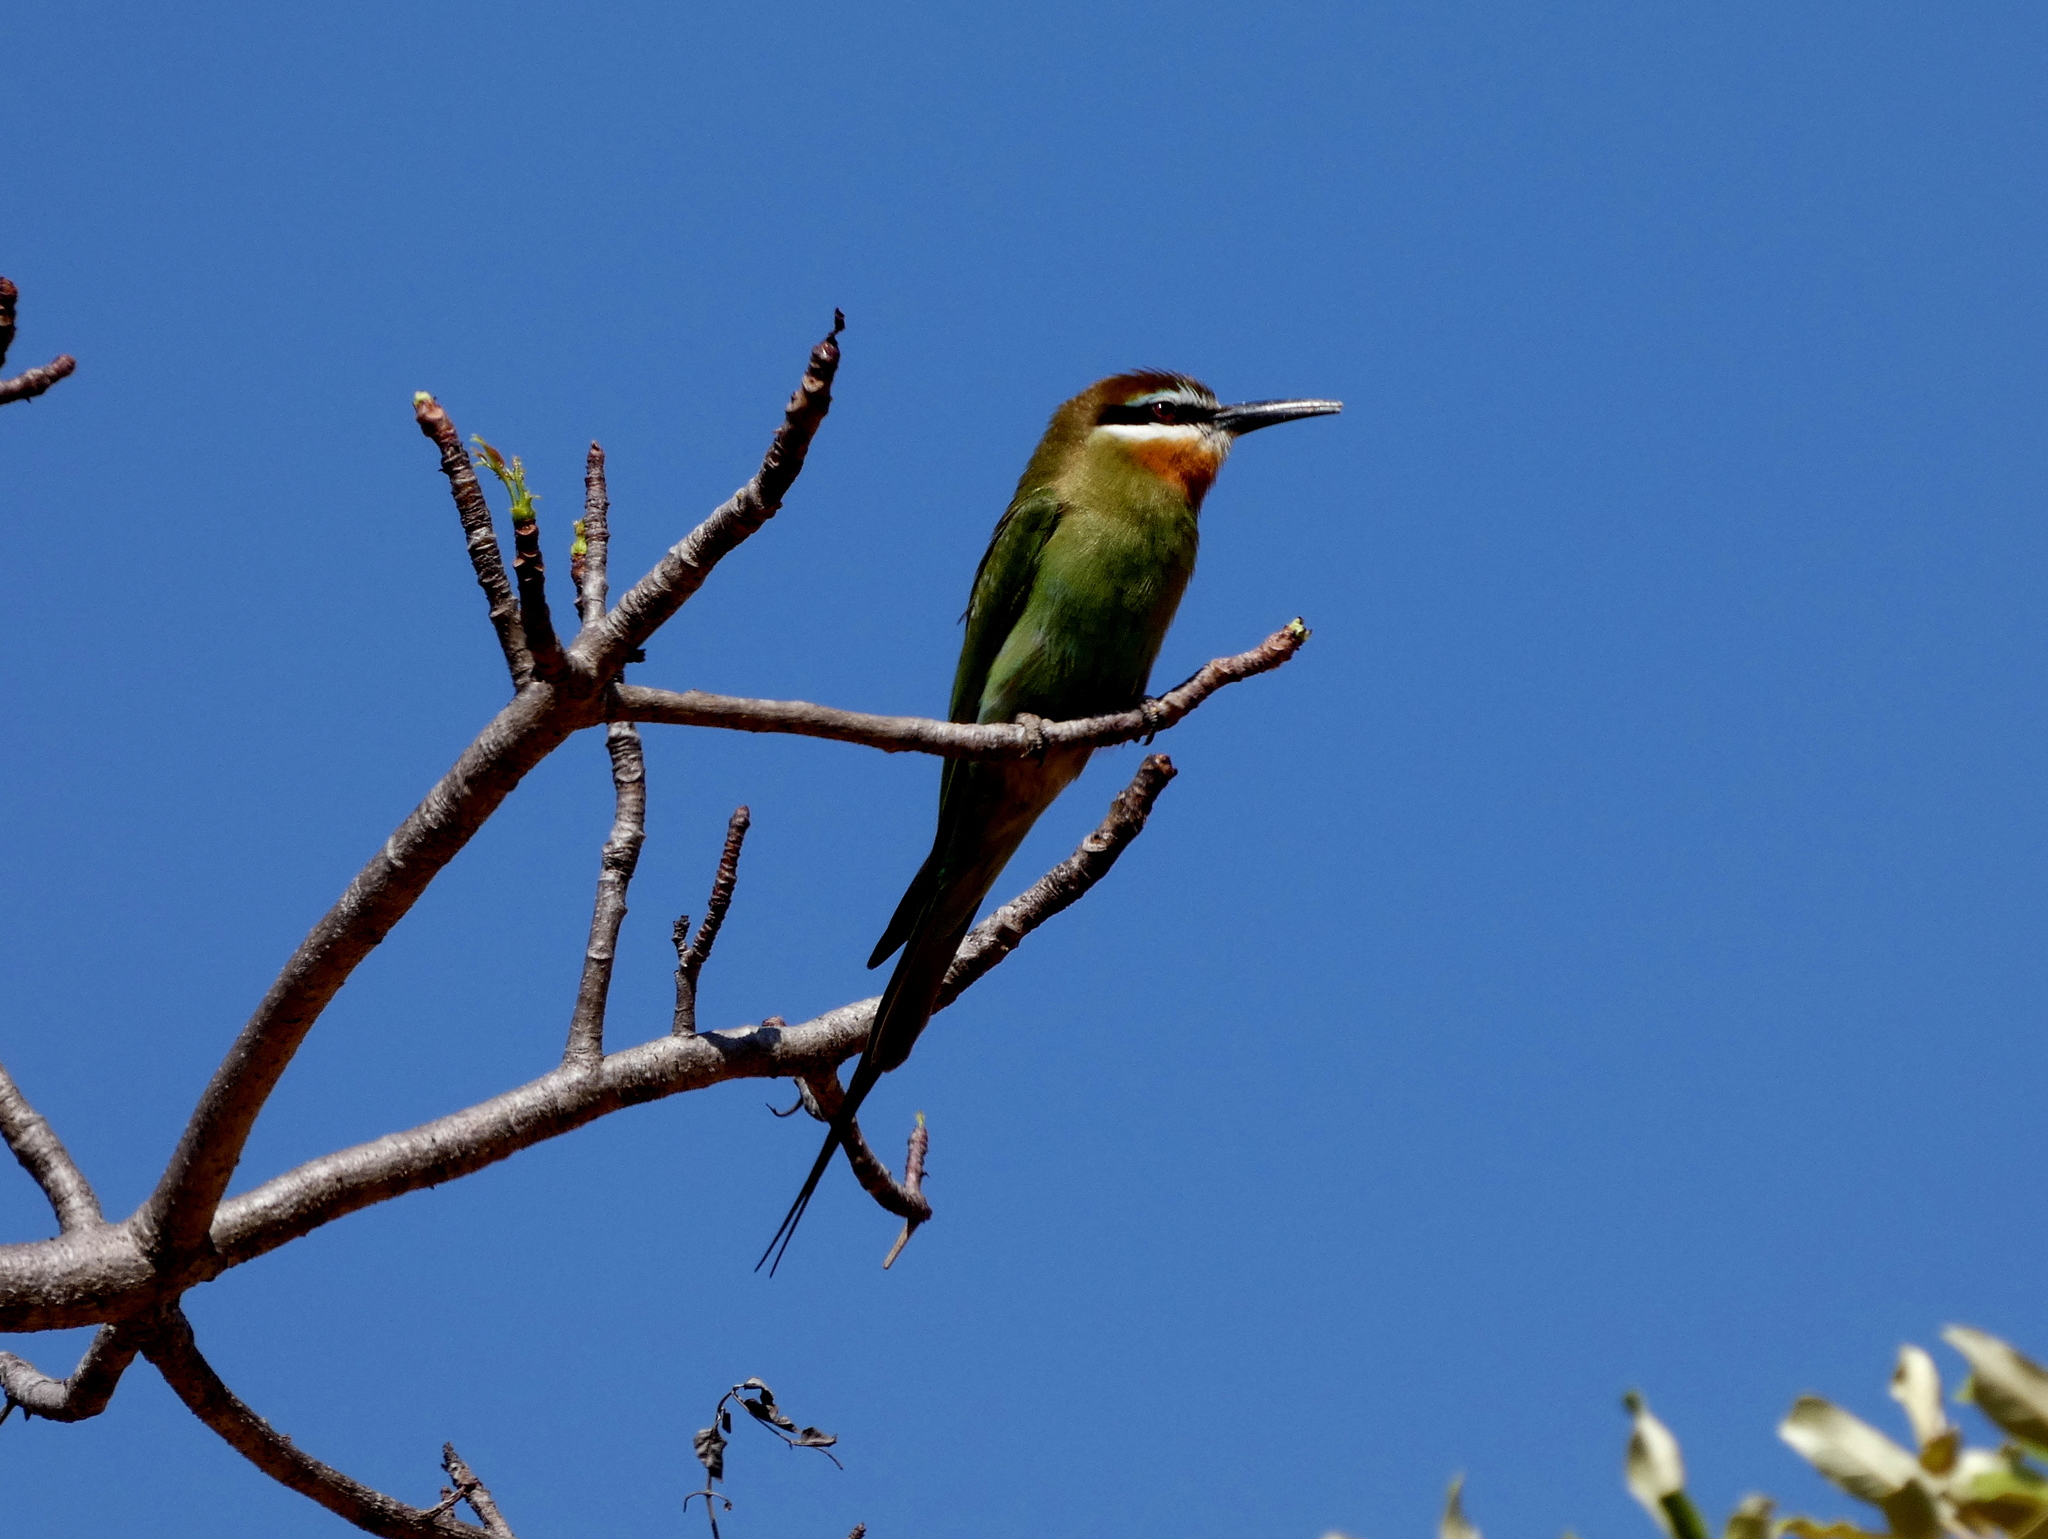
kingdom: Animalia
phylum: Chordata
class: Aves
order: Coraciiformes
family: Meropidae
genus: Merops
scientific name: Merops superciliosus
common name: Olive bee-eater
